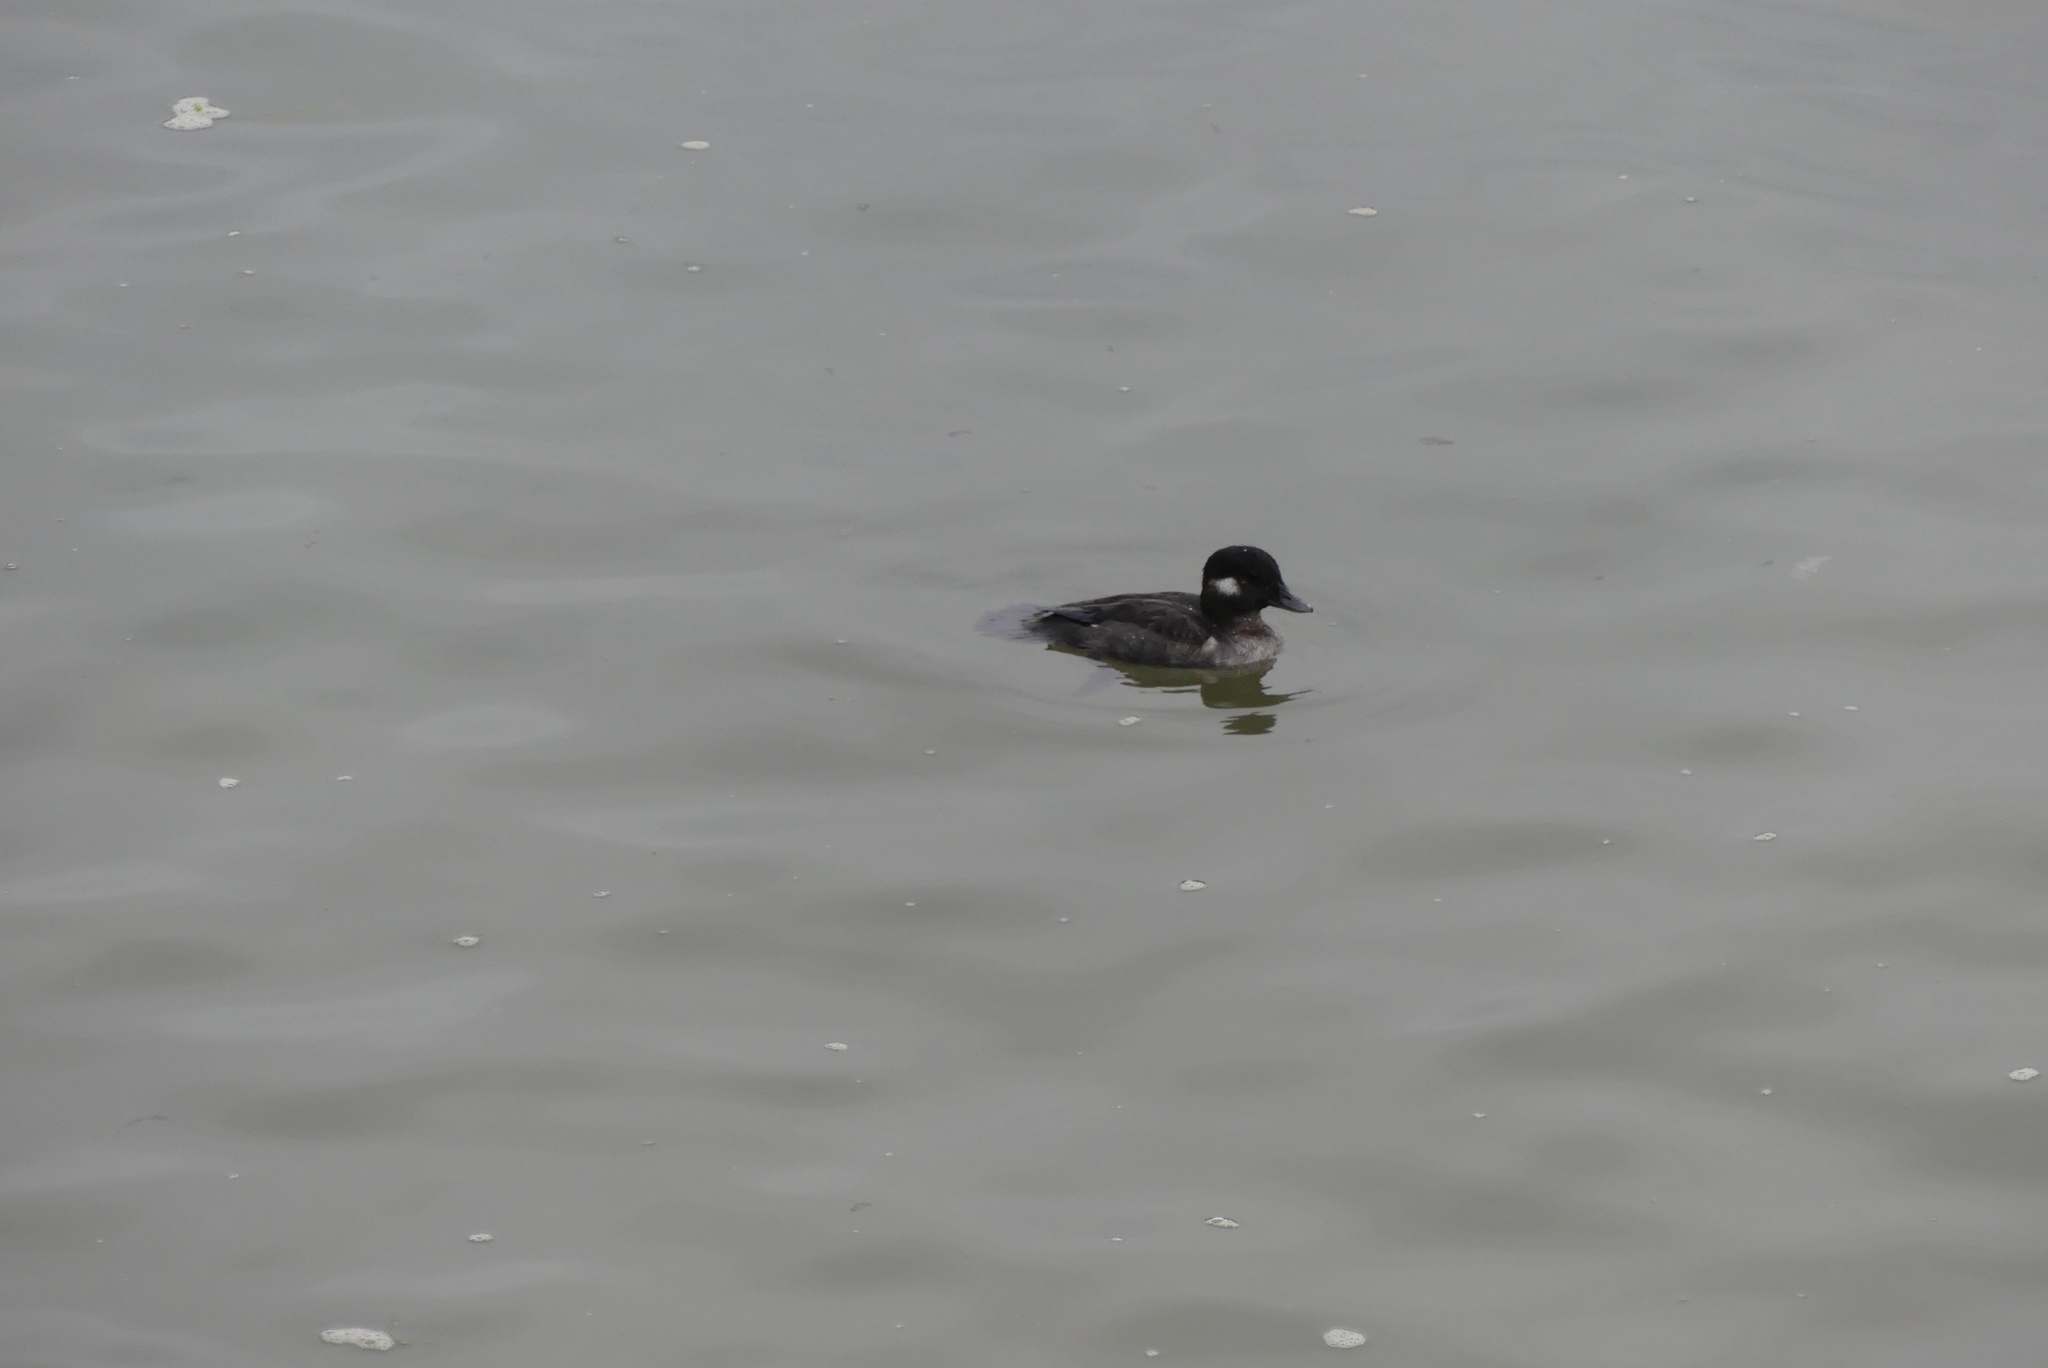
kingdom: Animalia
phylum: Chordata
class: Aves
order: Anseriformes
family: Anatidae
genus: Bucephala
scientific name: Bucephala albeola
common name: Bufflehead
